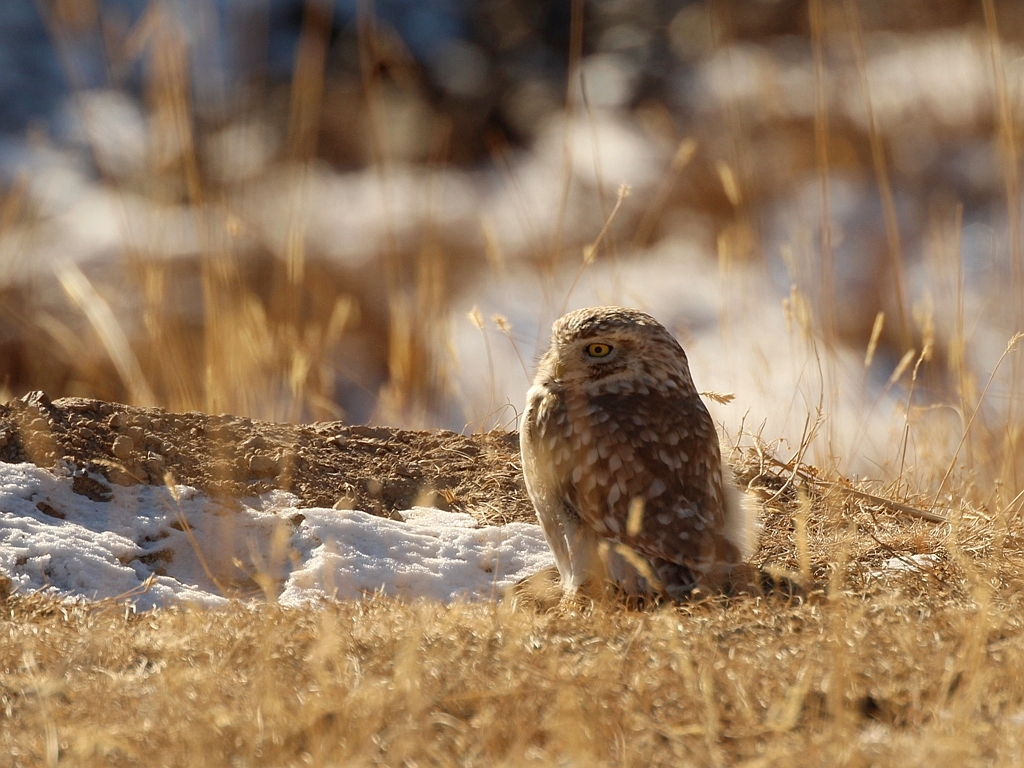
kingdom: Animalia
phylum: Chordata
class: Aves
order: Strigiformes
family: Strigidae
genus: Athene
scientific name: Athene noctua
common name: Little owl
